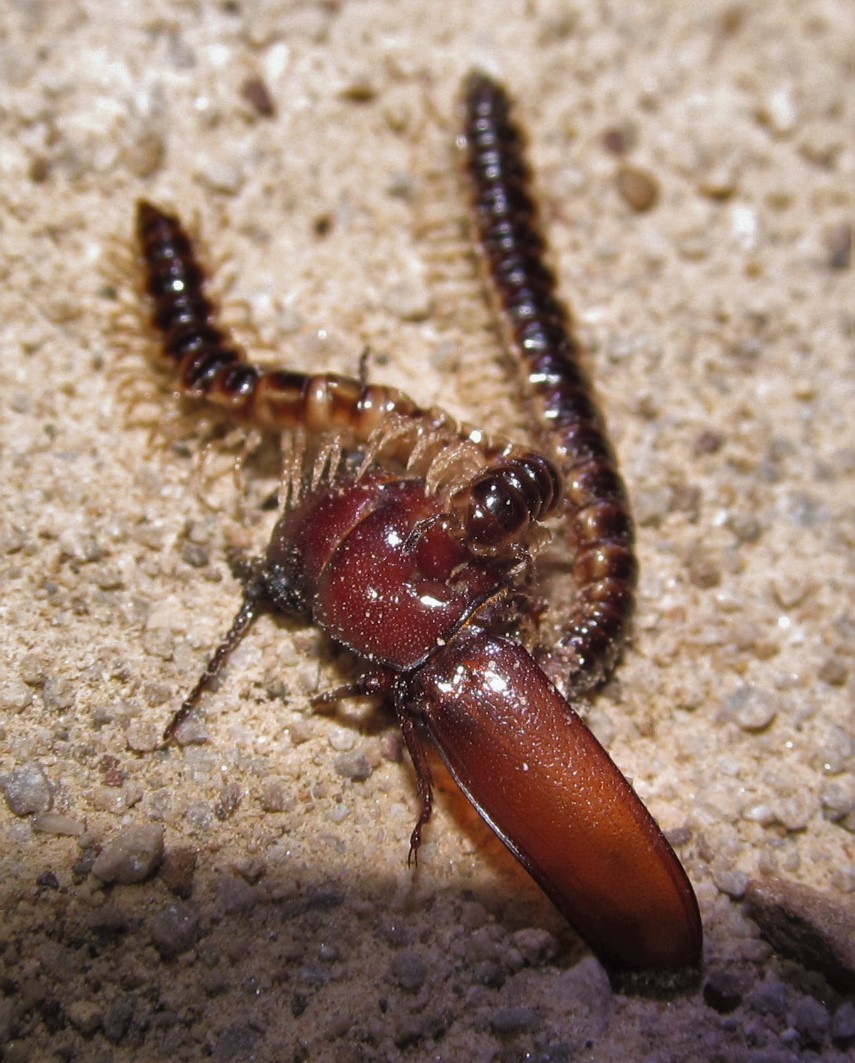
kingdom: Animalia
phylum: Arthropoda
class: Diplopoda
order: Polydesmida
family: Paradoxosomatidae
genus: Oxidus
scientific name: Oxidus gracilis
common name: Greenhouse millipede
